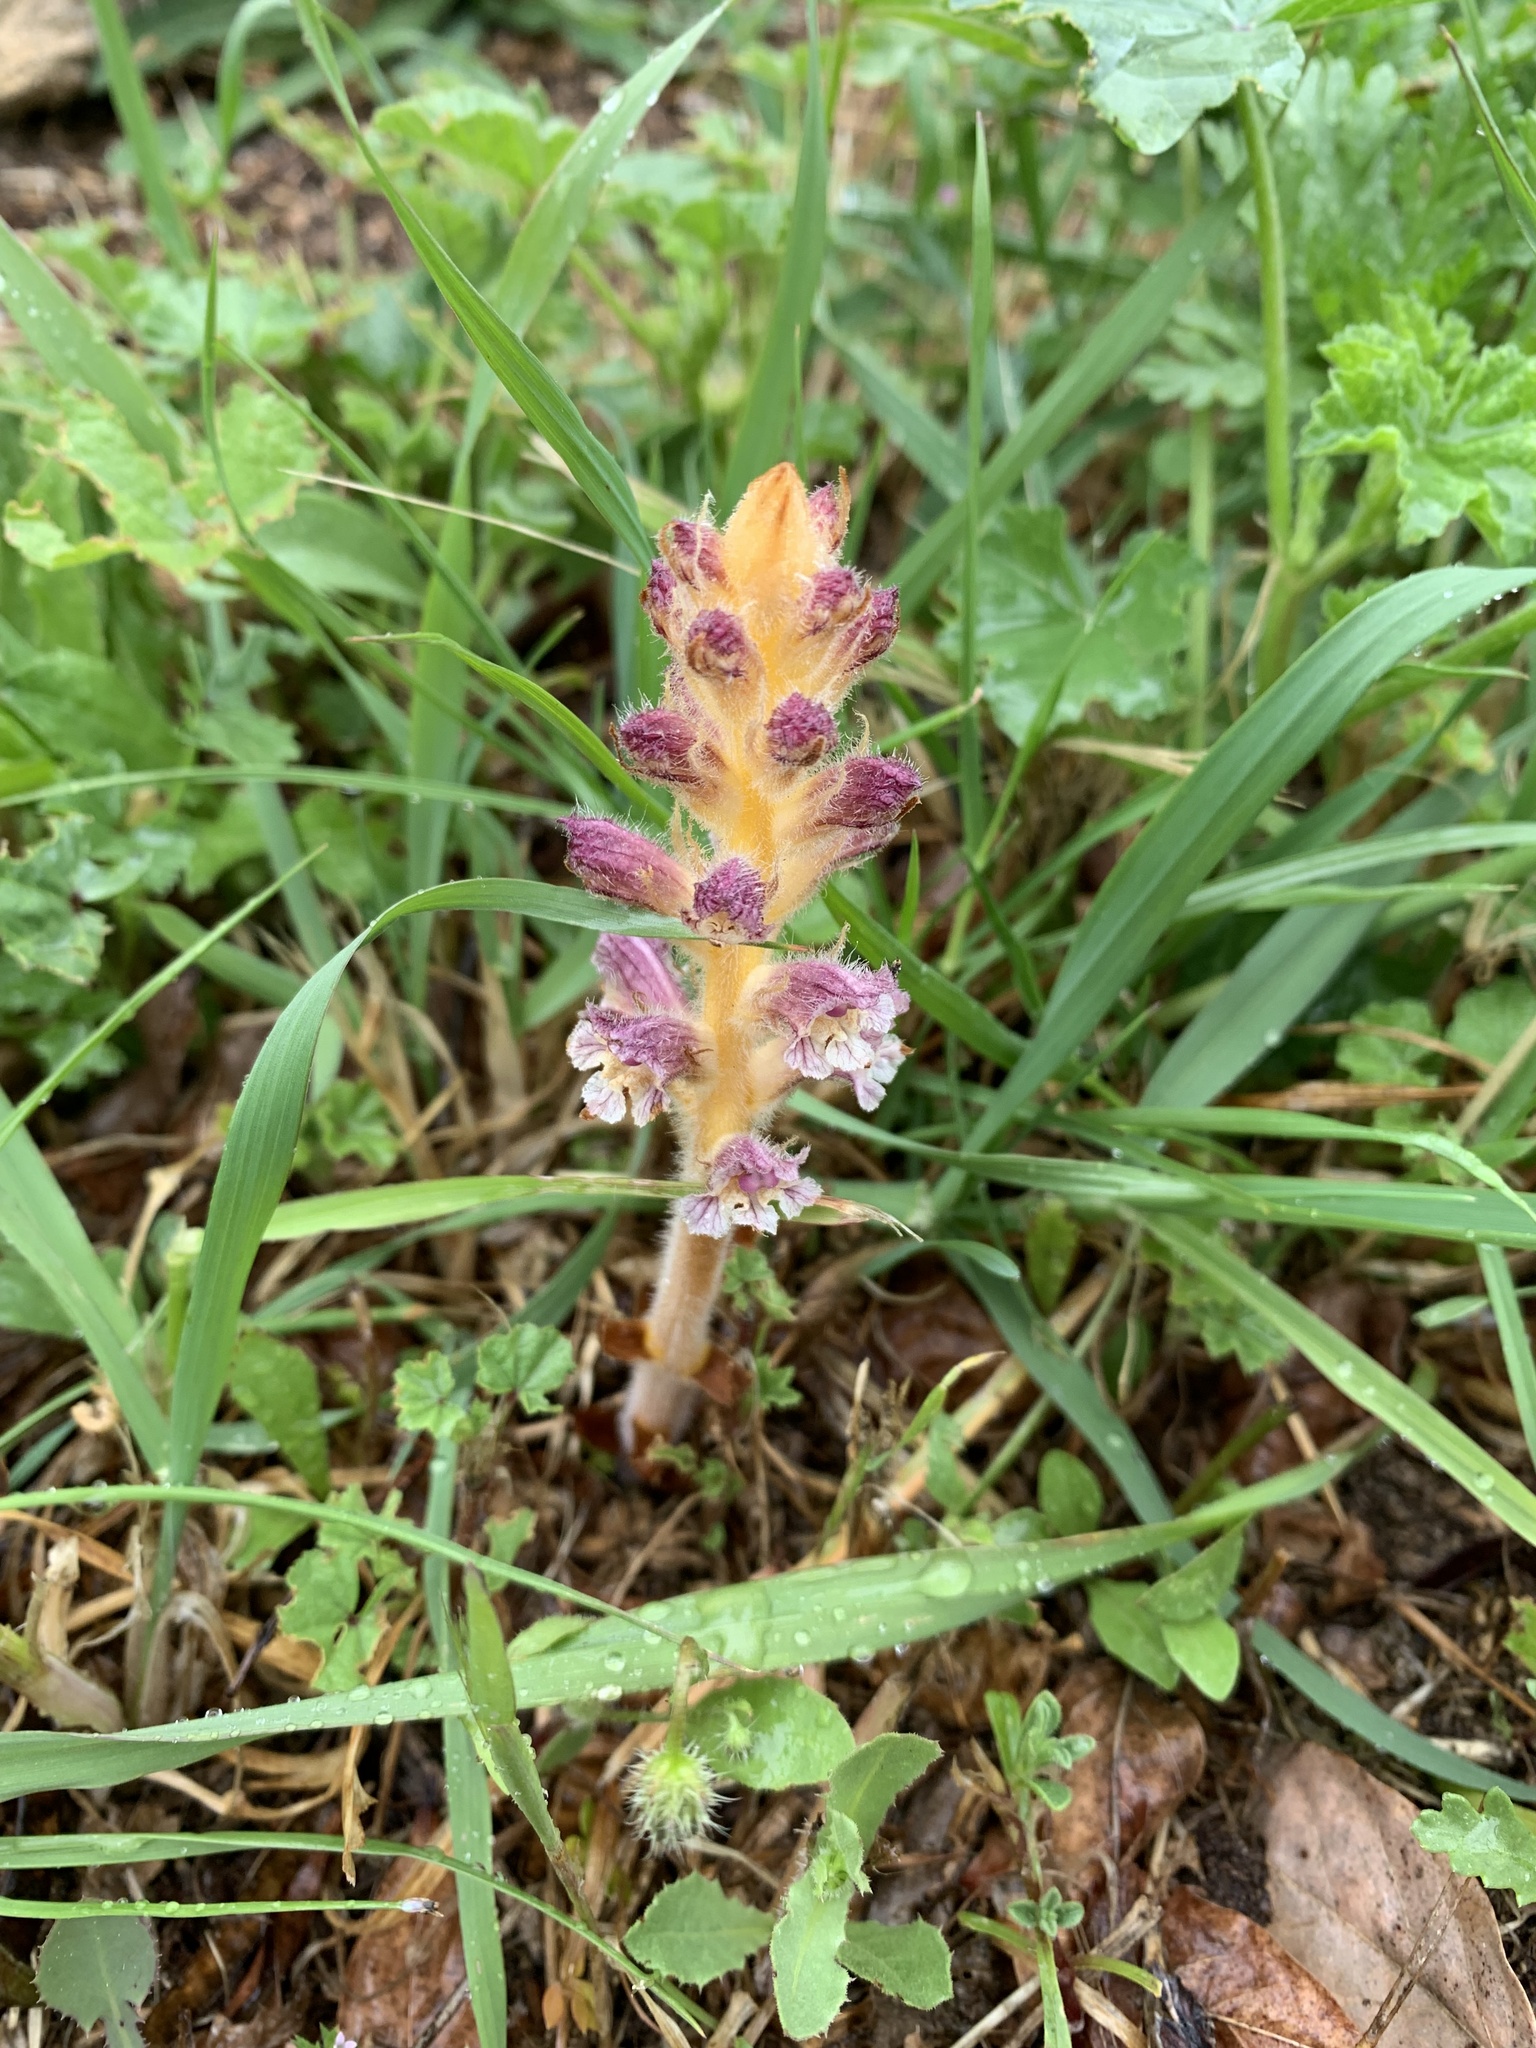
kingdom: Plantae
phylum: Tracheophyta
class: Magnoliopsida
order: Lamiales
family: Orobanchaceae
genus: Orobanche
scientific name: Orobanche pubescens
